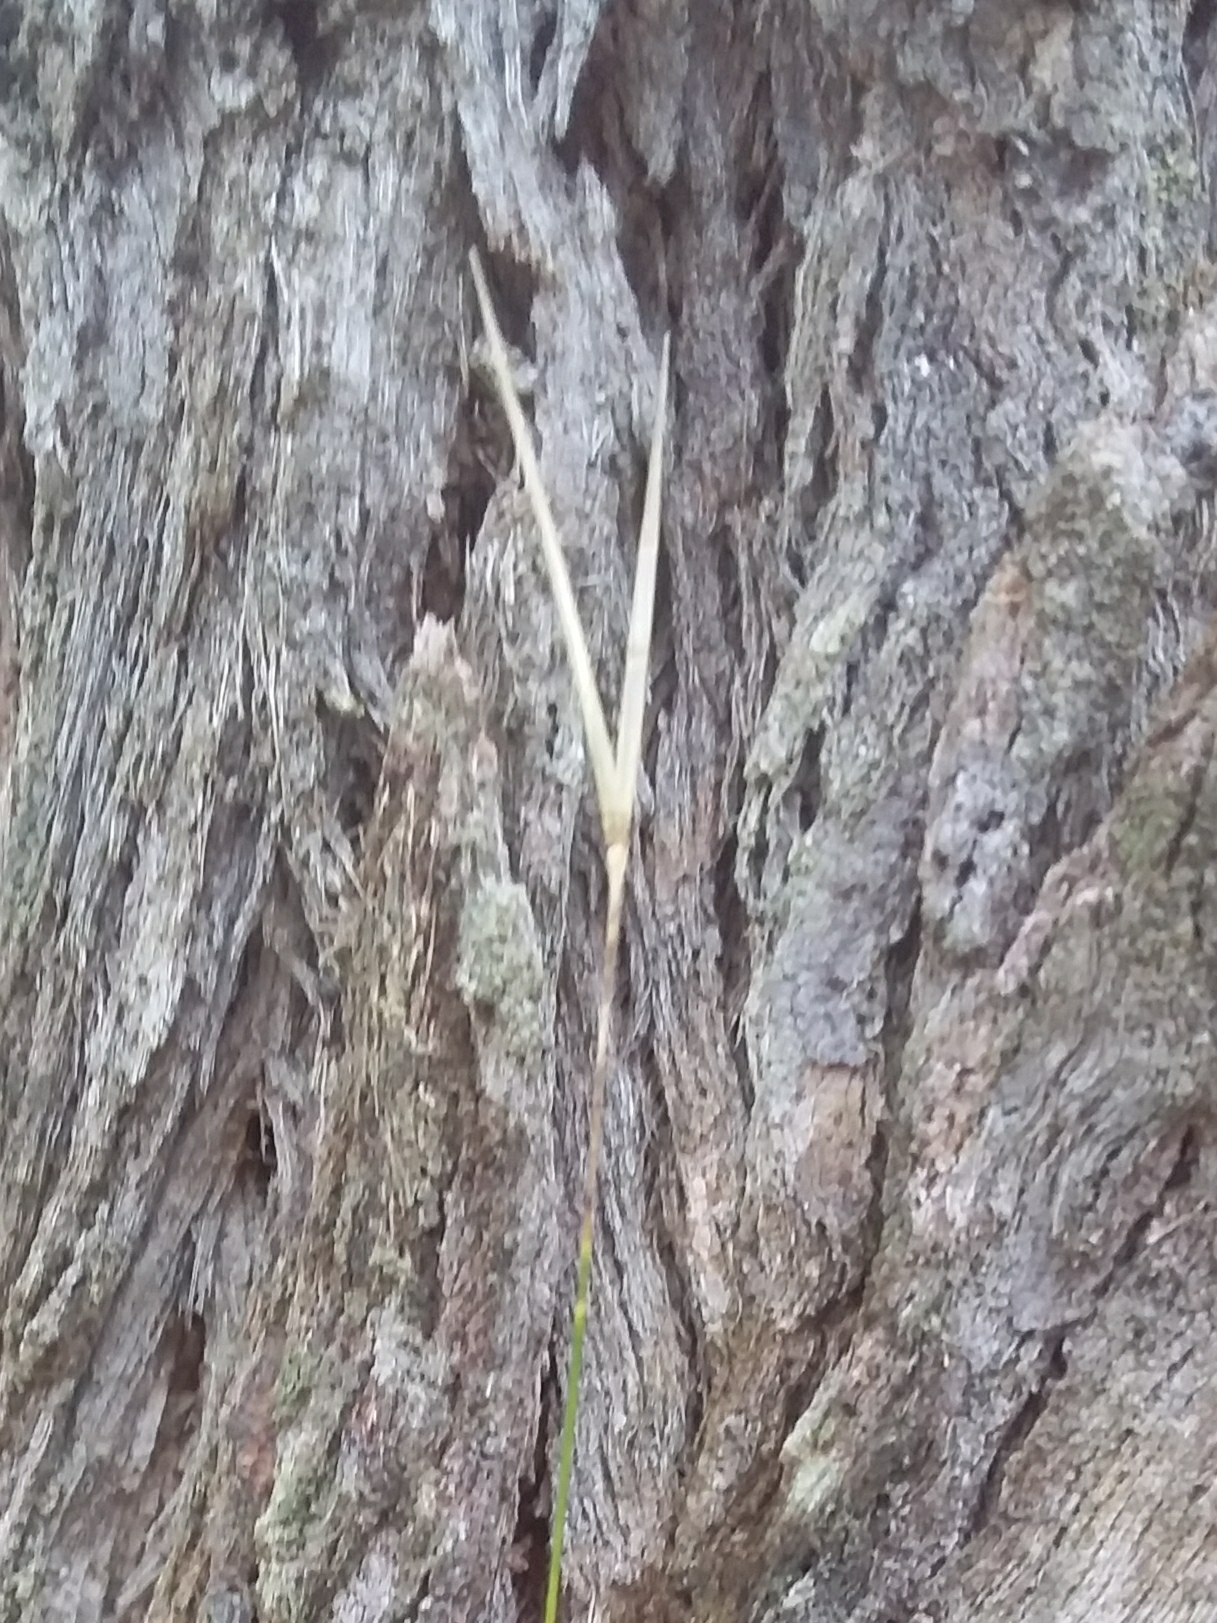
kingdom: Plantae
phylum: Tracheophyta
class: Liliopsida
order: Poales
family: Poaceae
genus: Austrostipa
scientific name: Austrostipa muelleri
